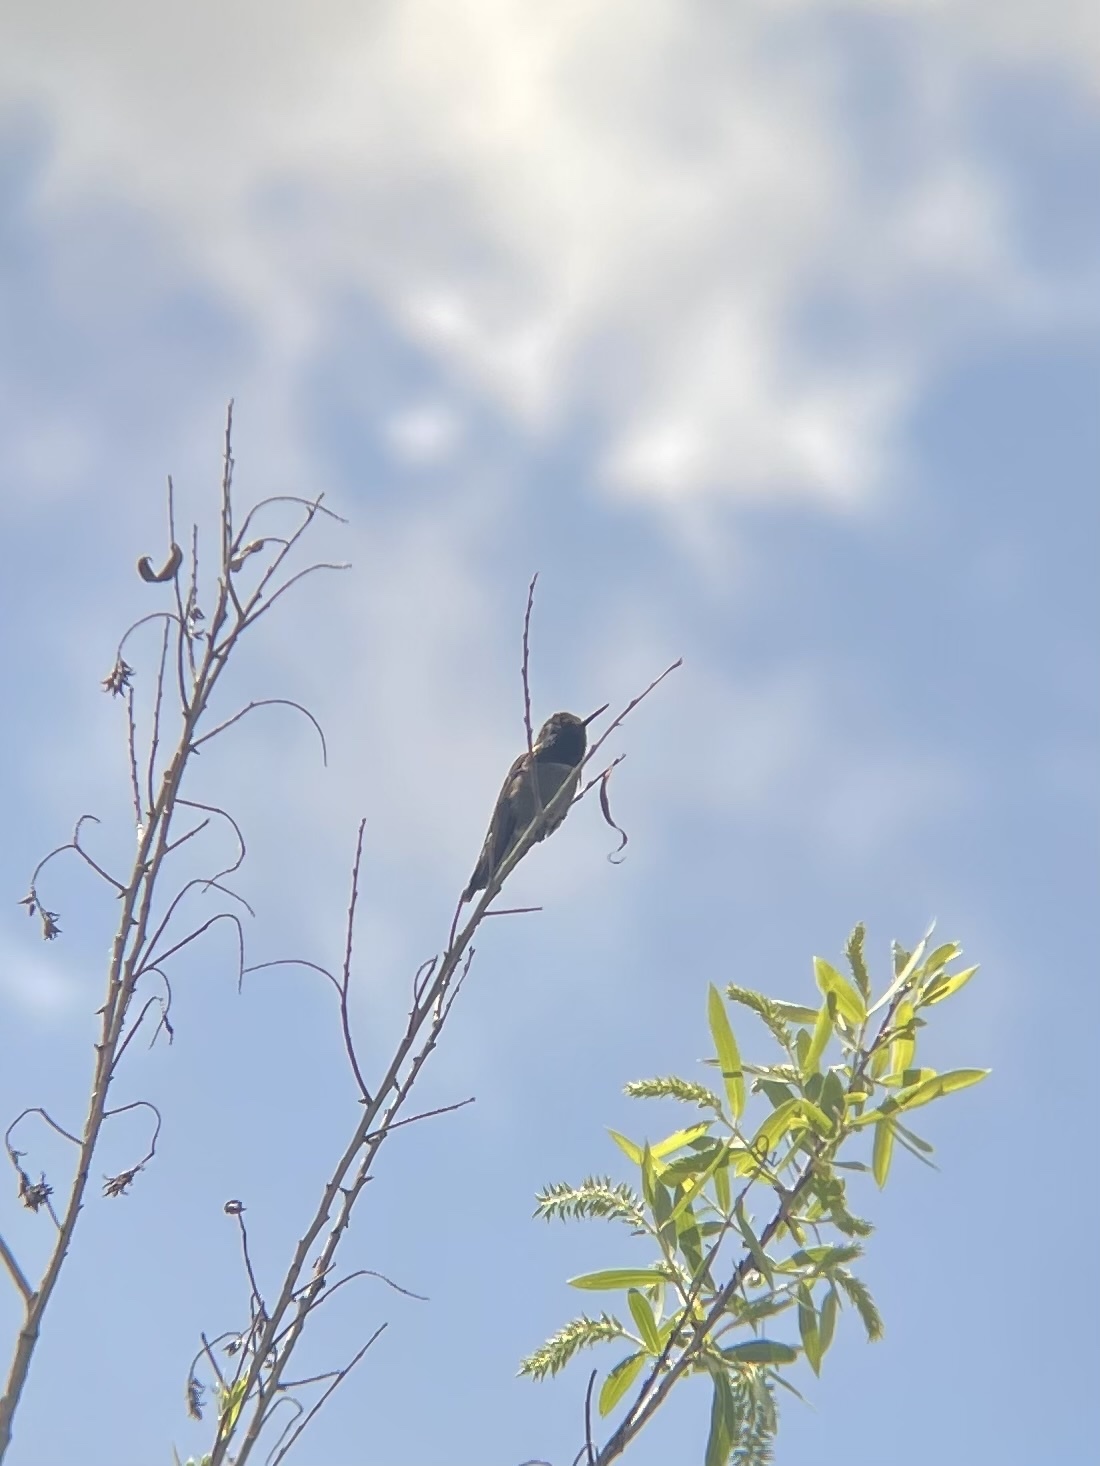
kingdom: Animalia
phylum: Chordata
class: Aves
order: Apodiformes
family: Trochilidae
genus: Calypte
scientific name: Calypte anna
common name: Anna's hummingbird
